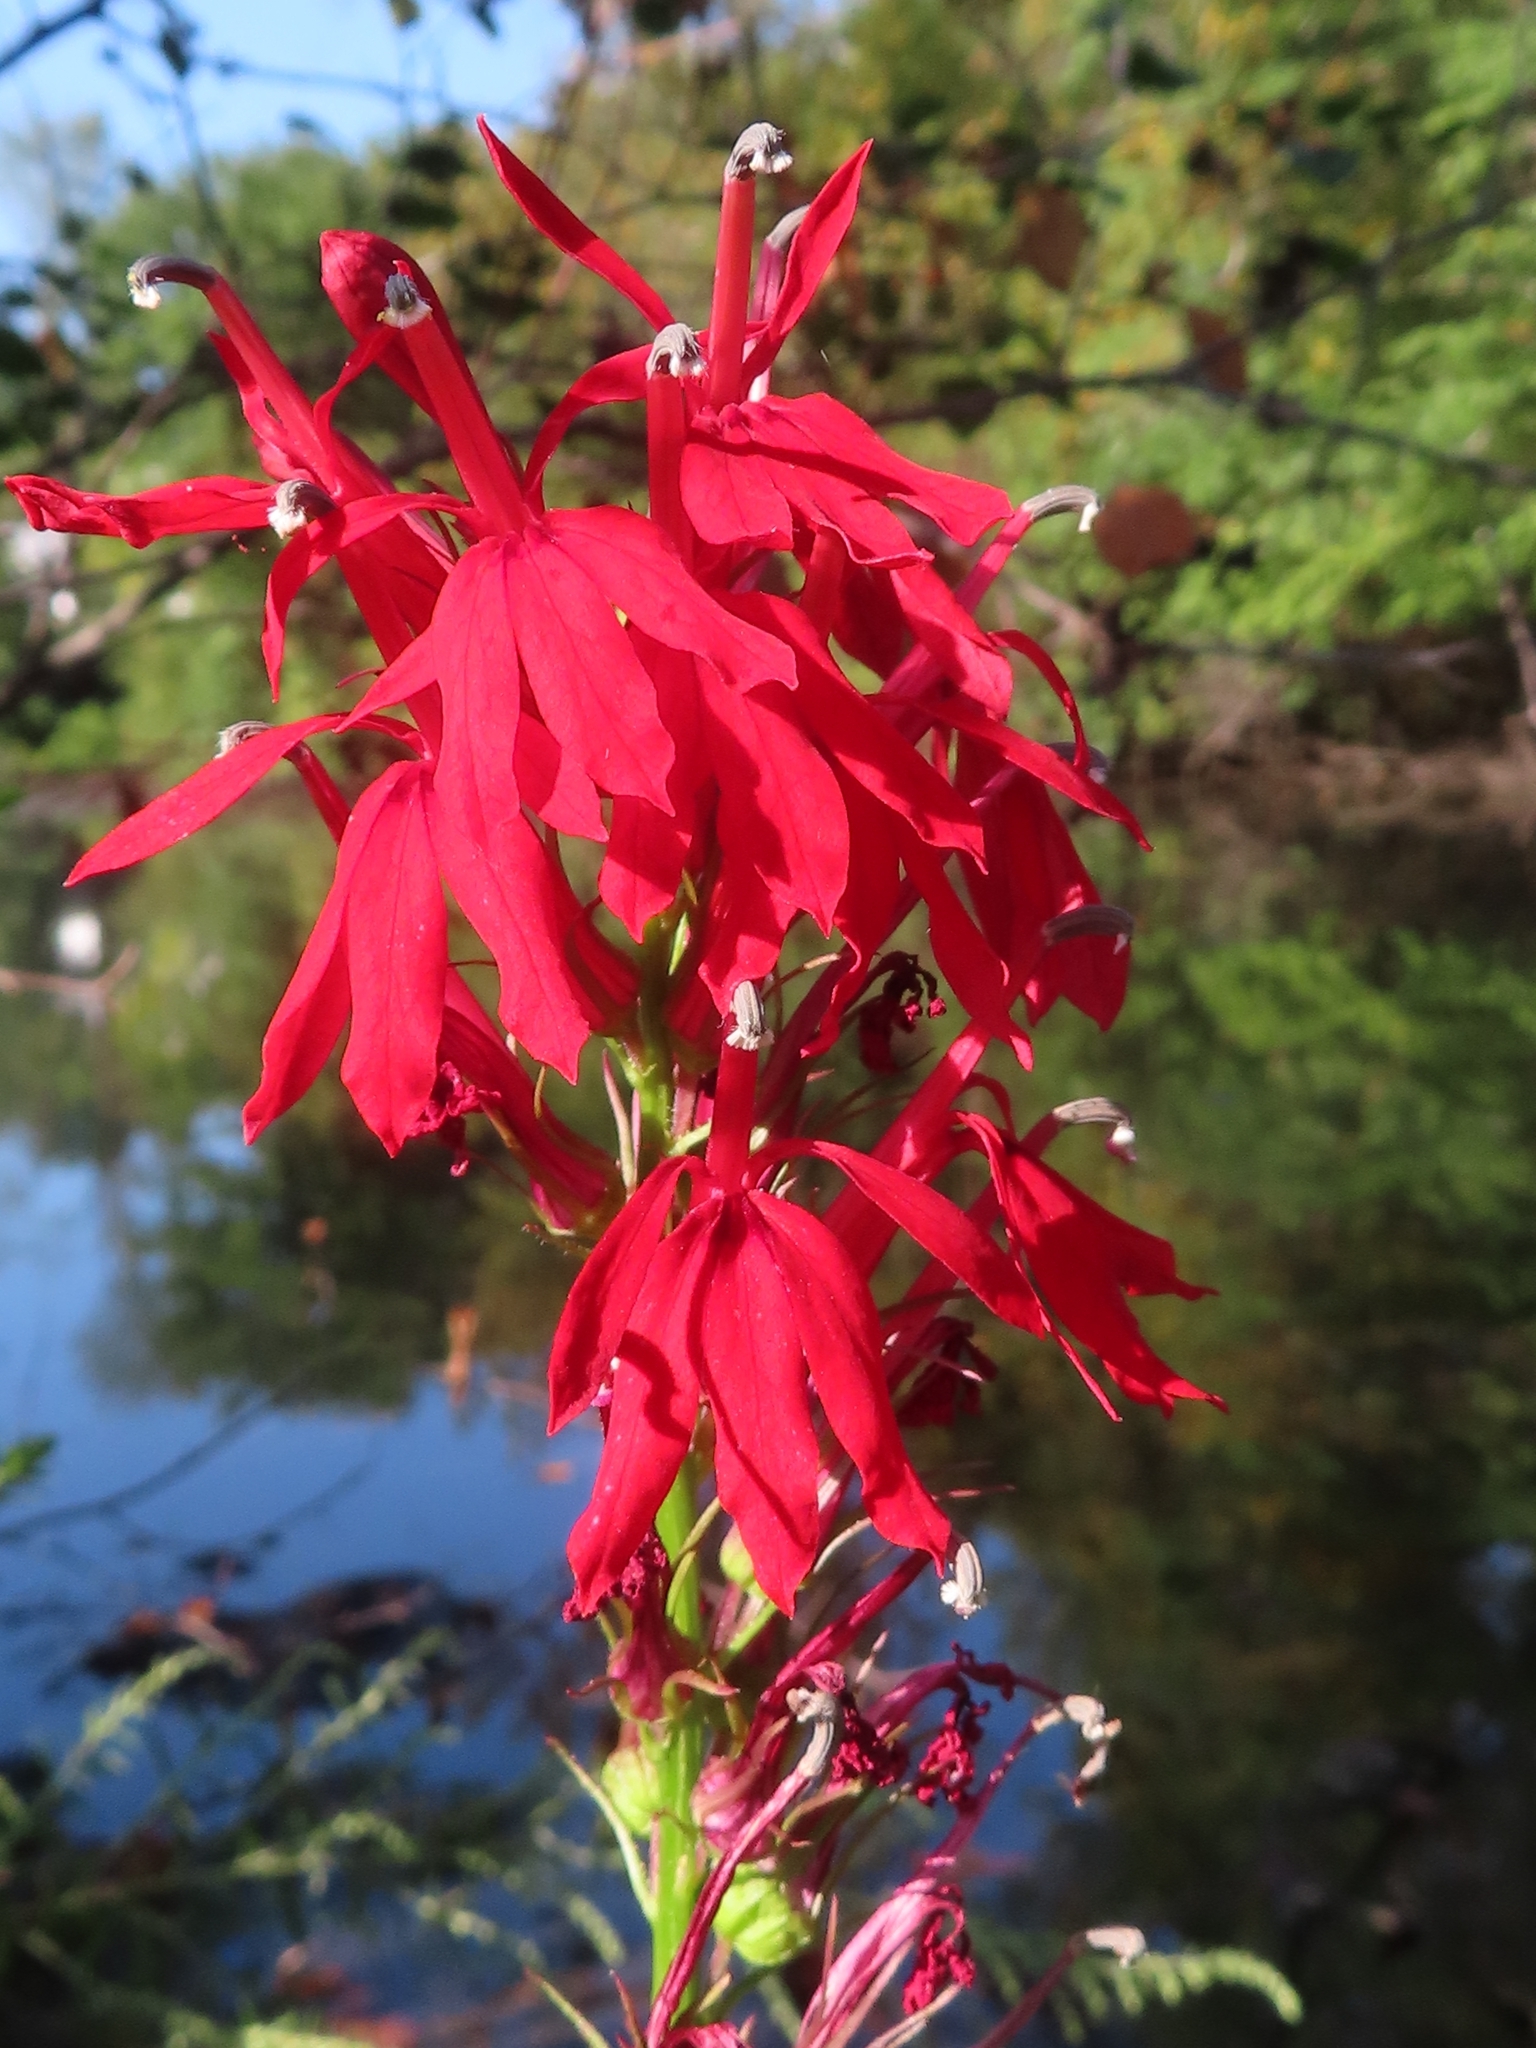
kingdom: Plantae
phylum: Tracheophyta
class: Magnoliopsida
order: Asterales
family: Campanulaceae
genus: Lobelia
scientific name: Lobelia cardinalis
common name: Cardinal flower
